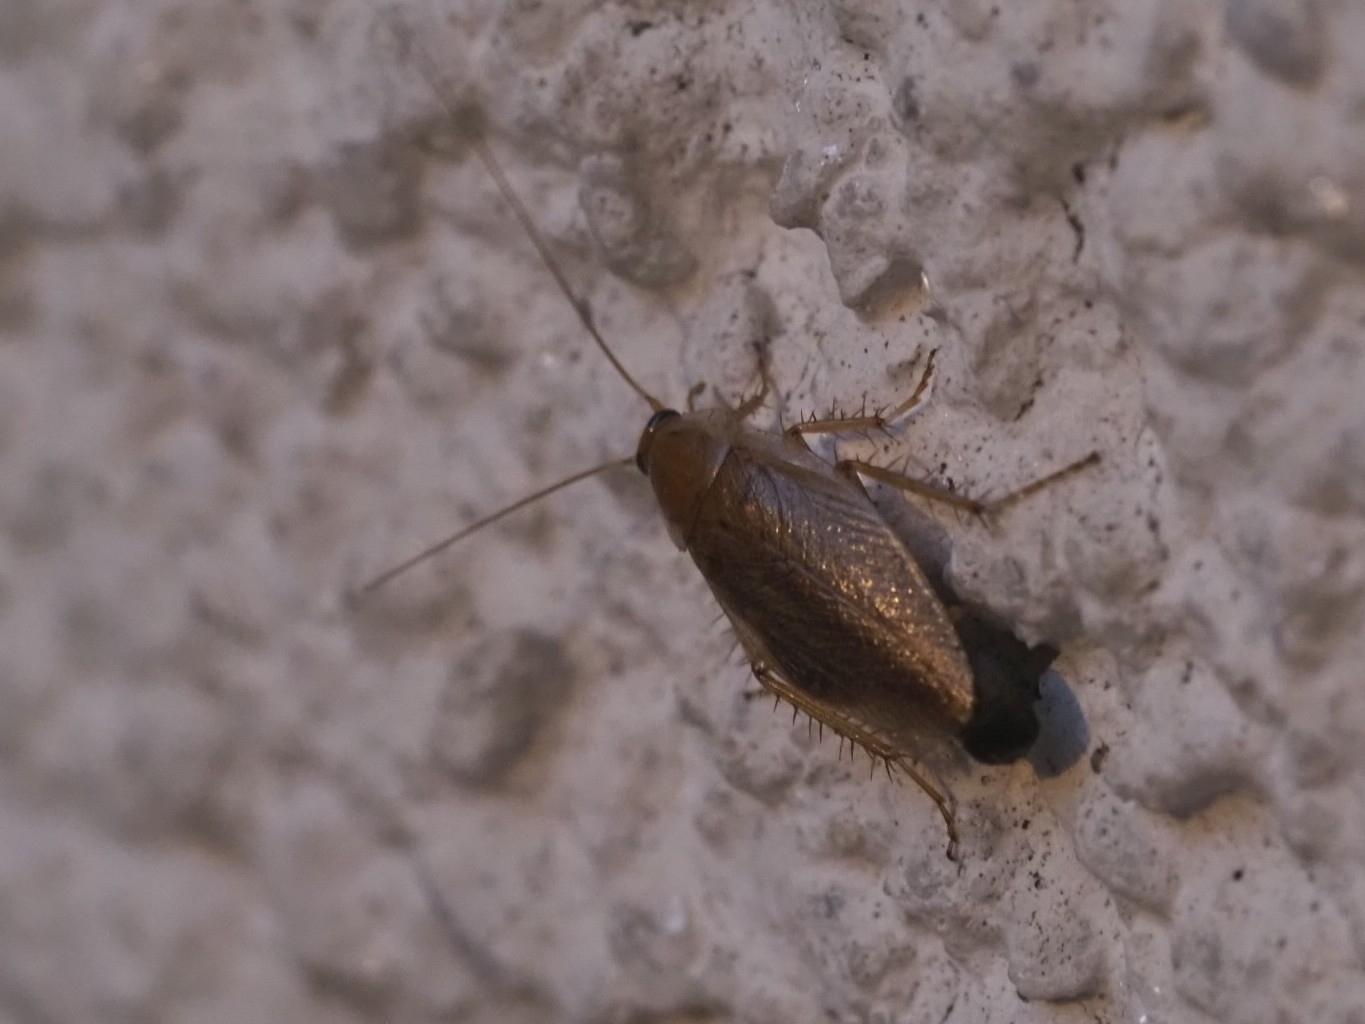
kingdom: Animalia
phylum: Arthropoda
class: Insecta
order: Blattodea
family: Ectobiidae
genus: Ectobius
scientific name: Ectobius vittiventris
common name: Garden cockroach
